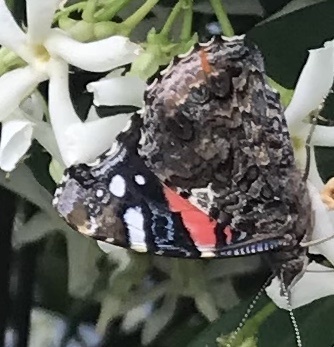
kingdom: Animalia
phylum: Arthropoda
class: Insecta
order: Lepidoptera
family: Nymphalidae
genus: Vanessa
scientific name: Vanessa atalanta
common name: Red admiral
